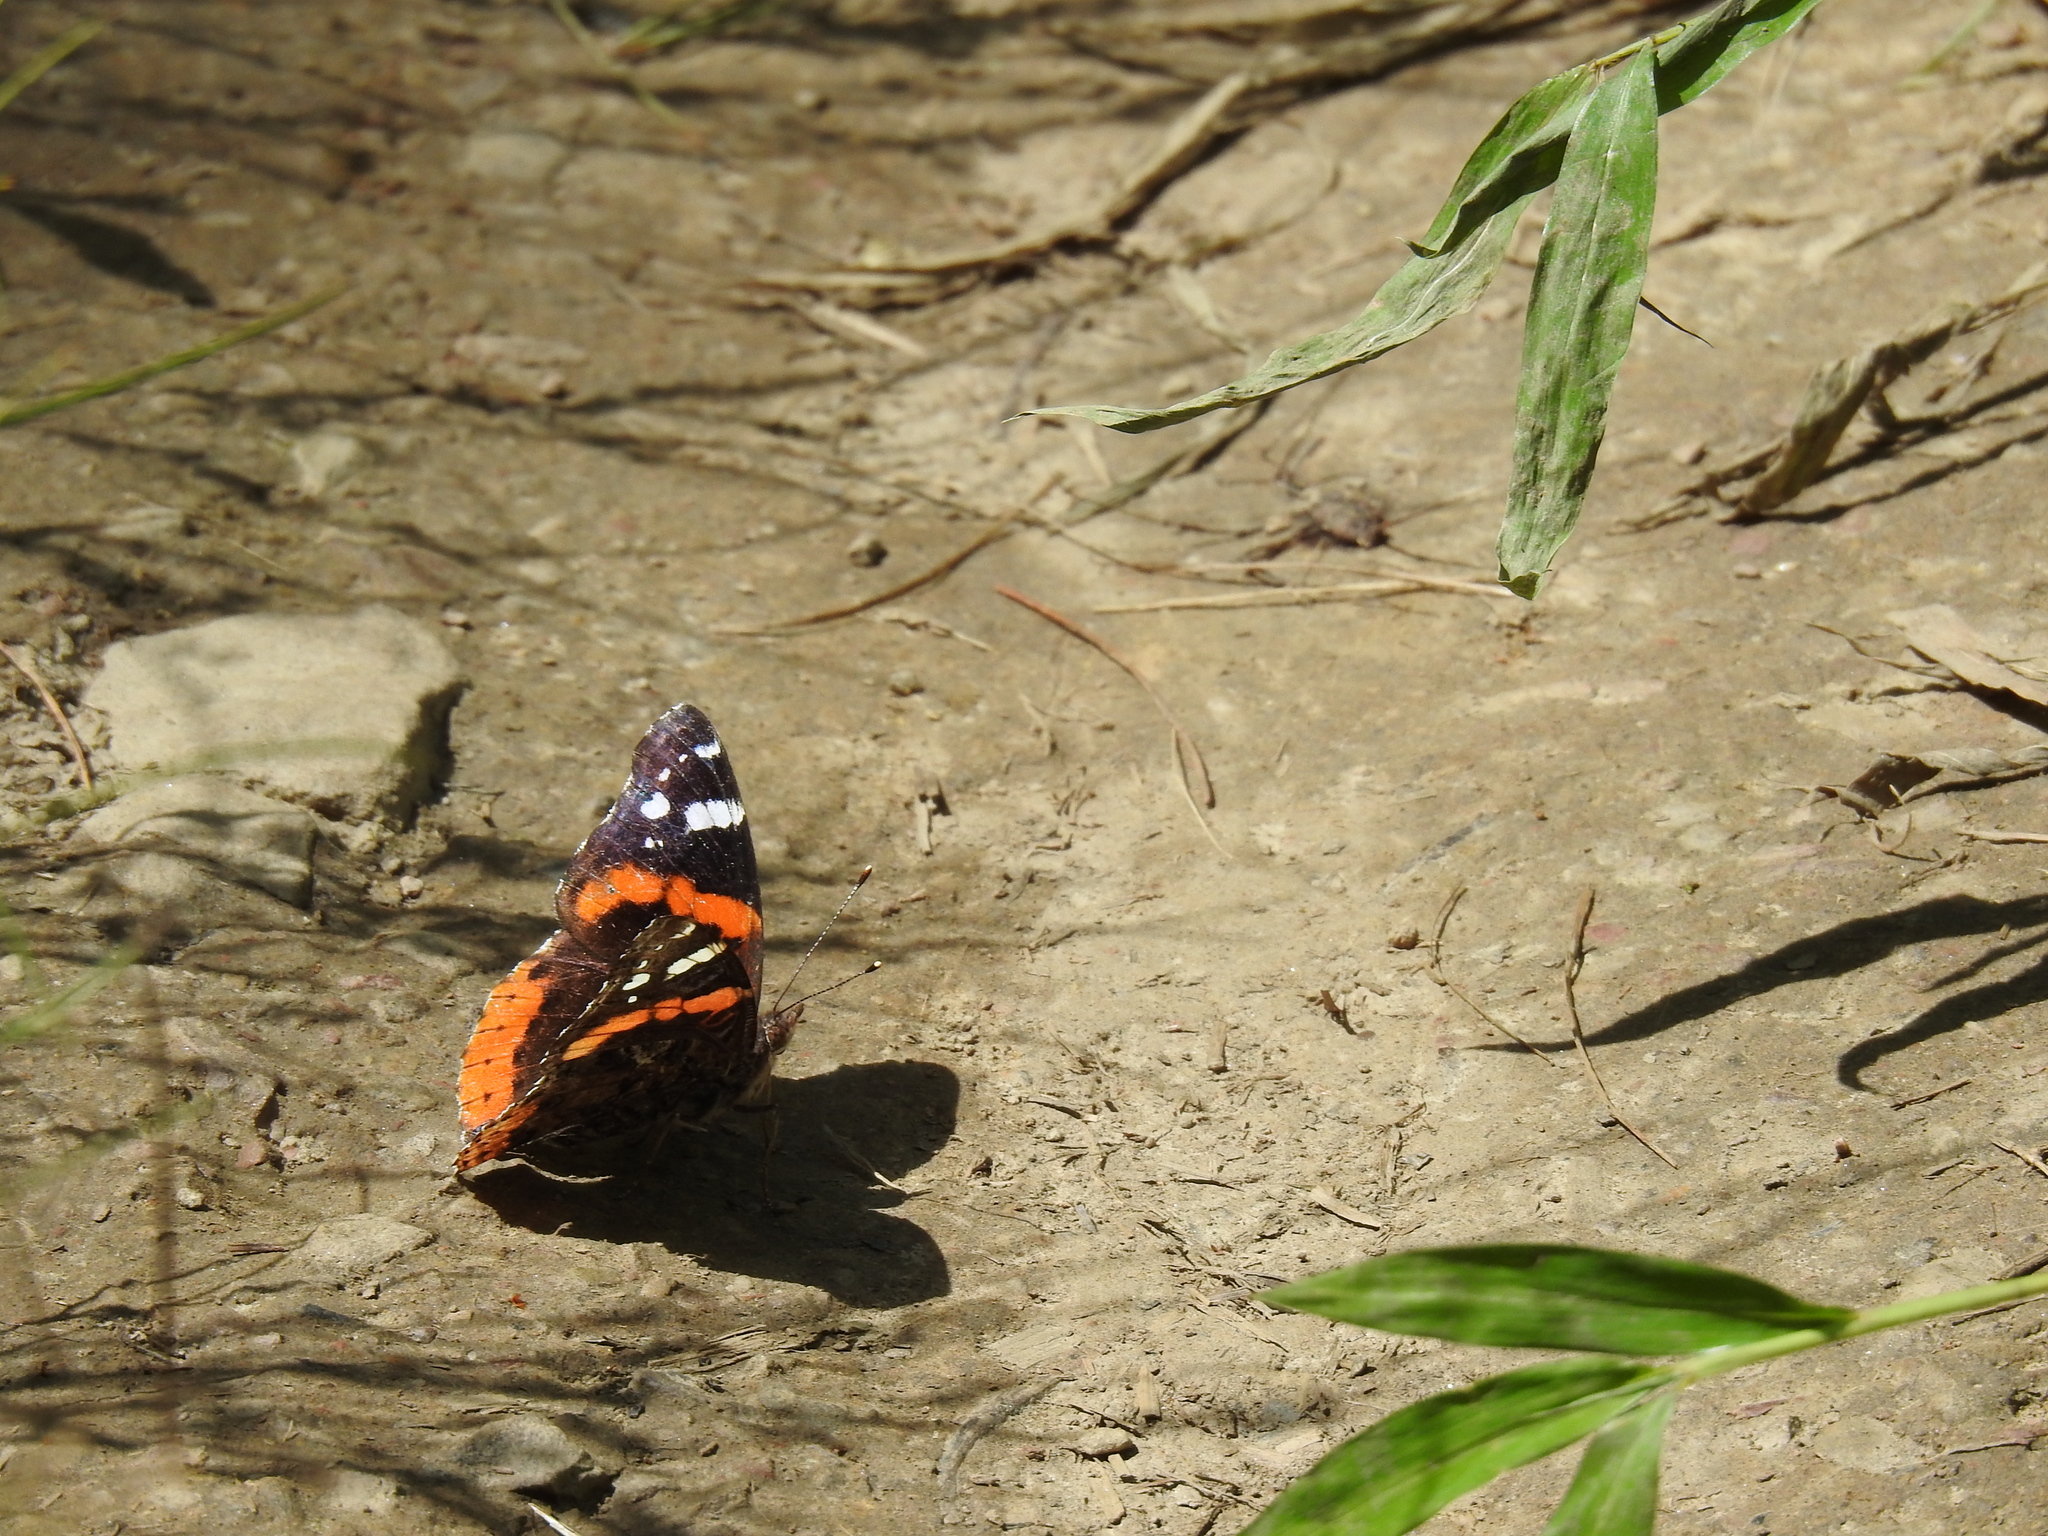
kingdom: Animalia
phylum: Arthropoda
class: Insecta
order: Lepidoptera
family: Nymphalidae
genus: Vanessa
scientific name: Vanessa atalanta
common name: Red admiral
